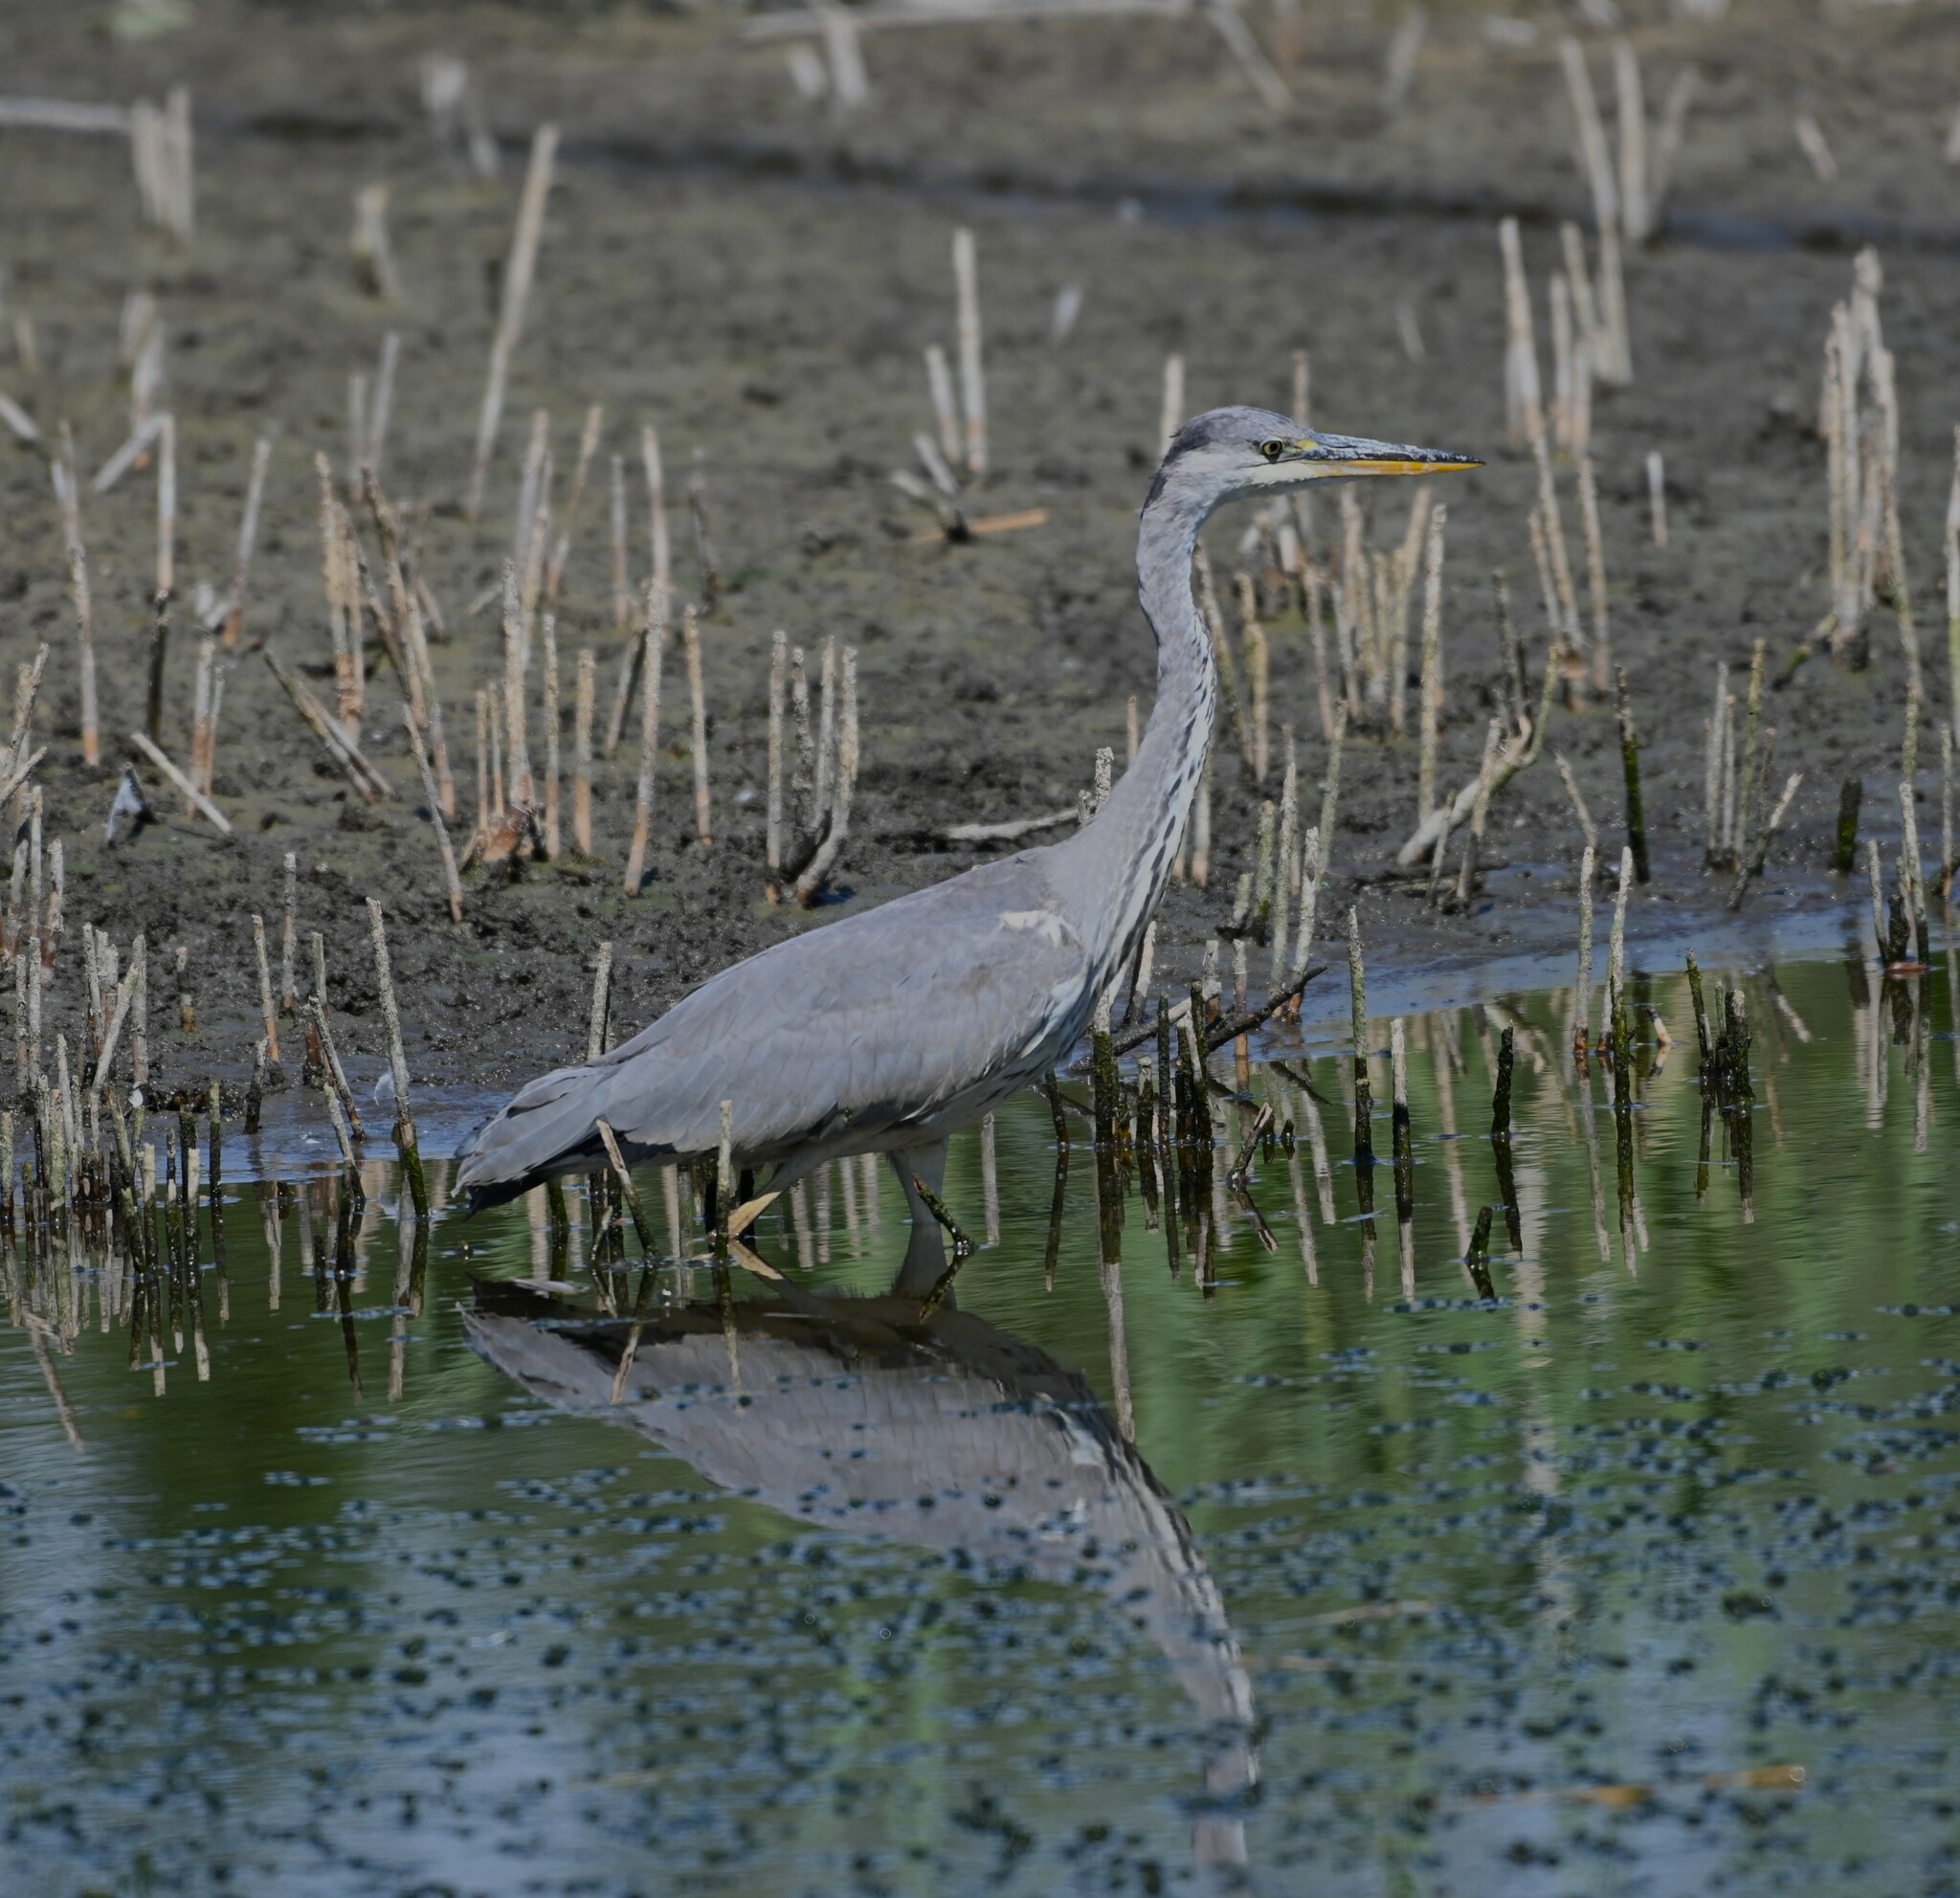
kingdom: Animalia
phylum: Chordata
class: Aves
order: Pelecaniformes
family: Ardeidae
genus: Ardea
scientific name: Ardea cinerea
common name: Grey heron
